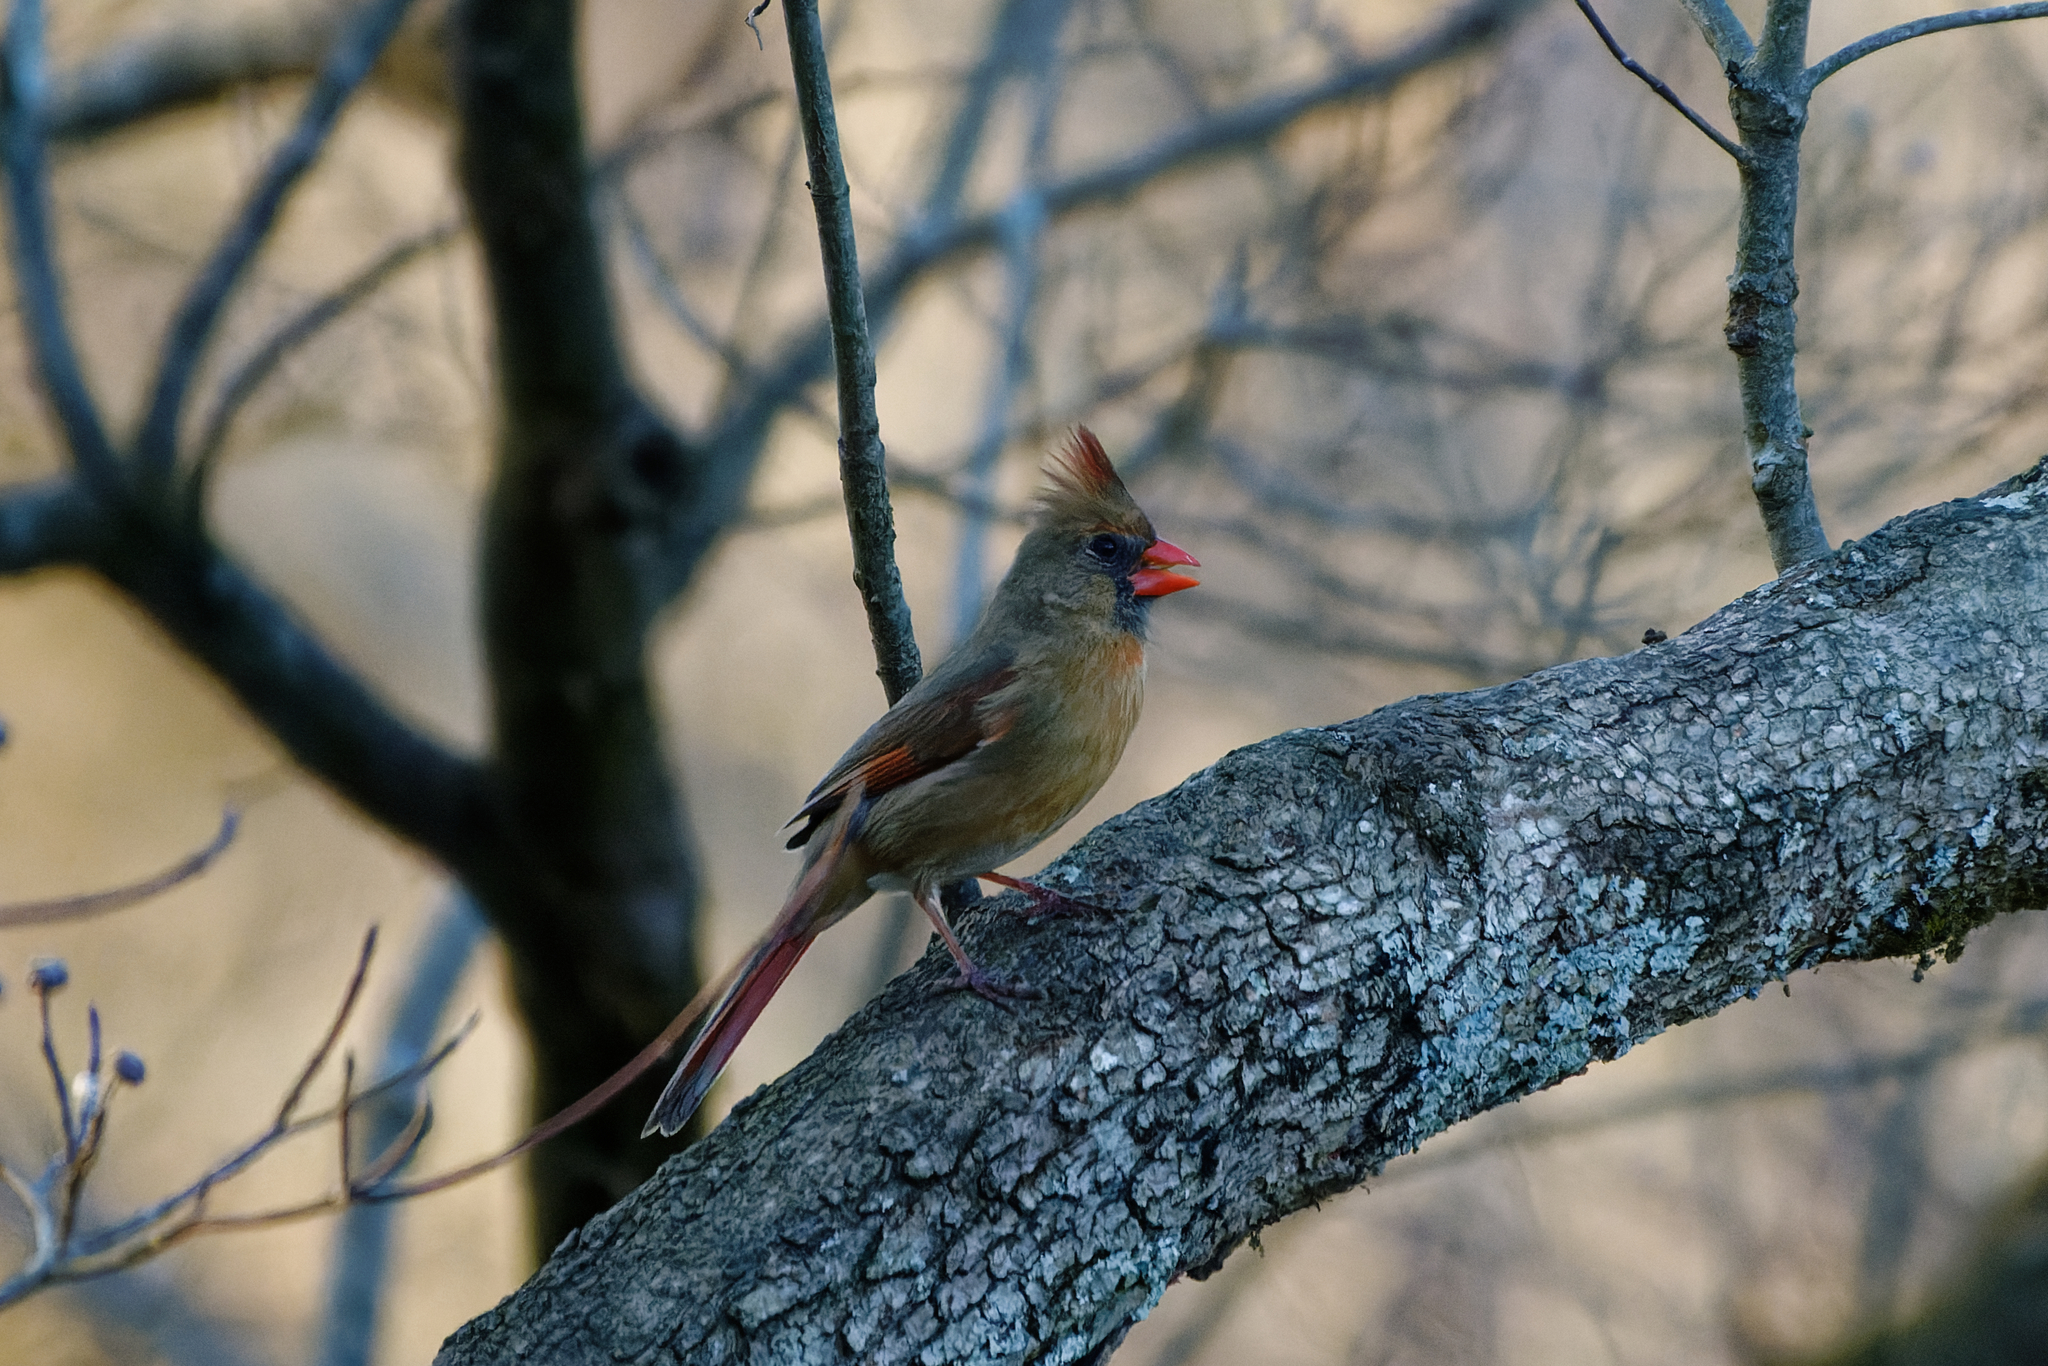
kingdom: Animalia
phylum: Chordata
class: Aves
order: Passeriformes
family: Cardinalidae
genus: Cardinalis
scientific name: Cardinalis cardinalis
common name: Northern cardinal
